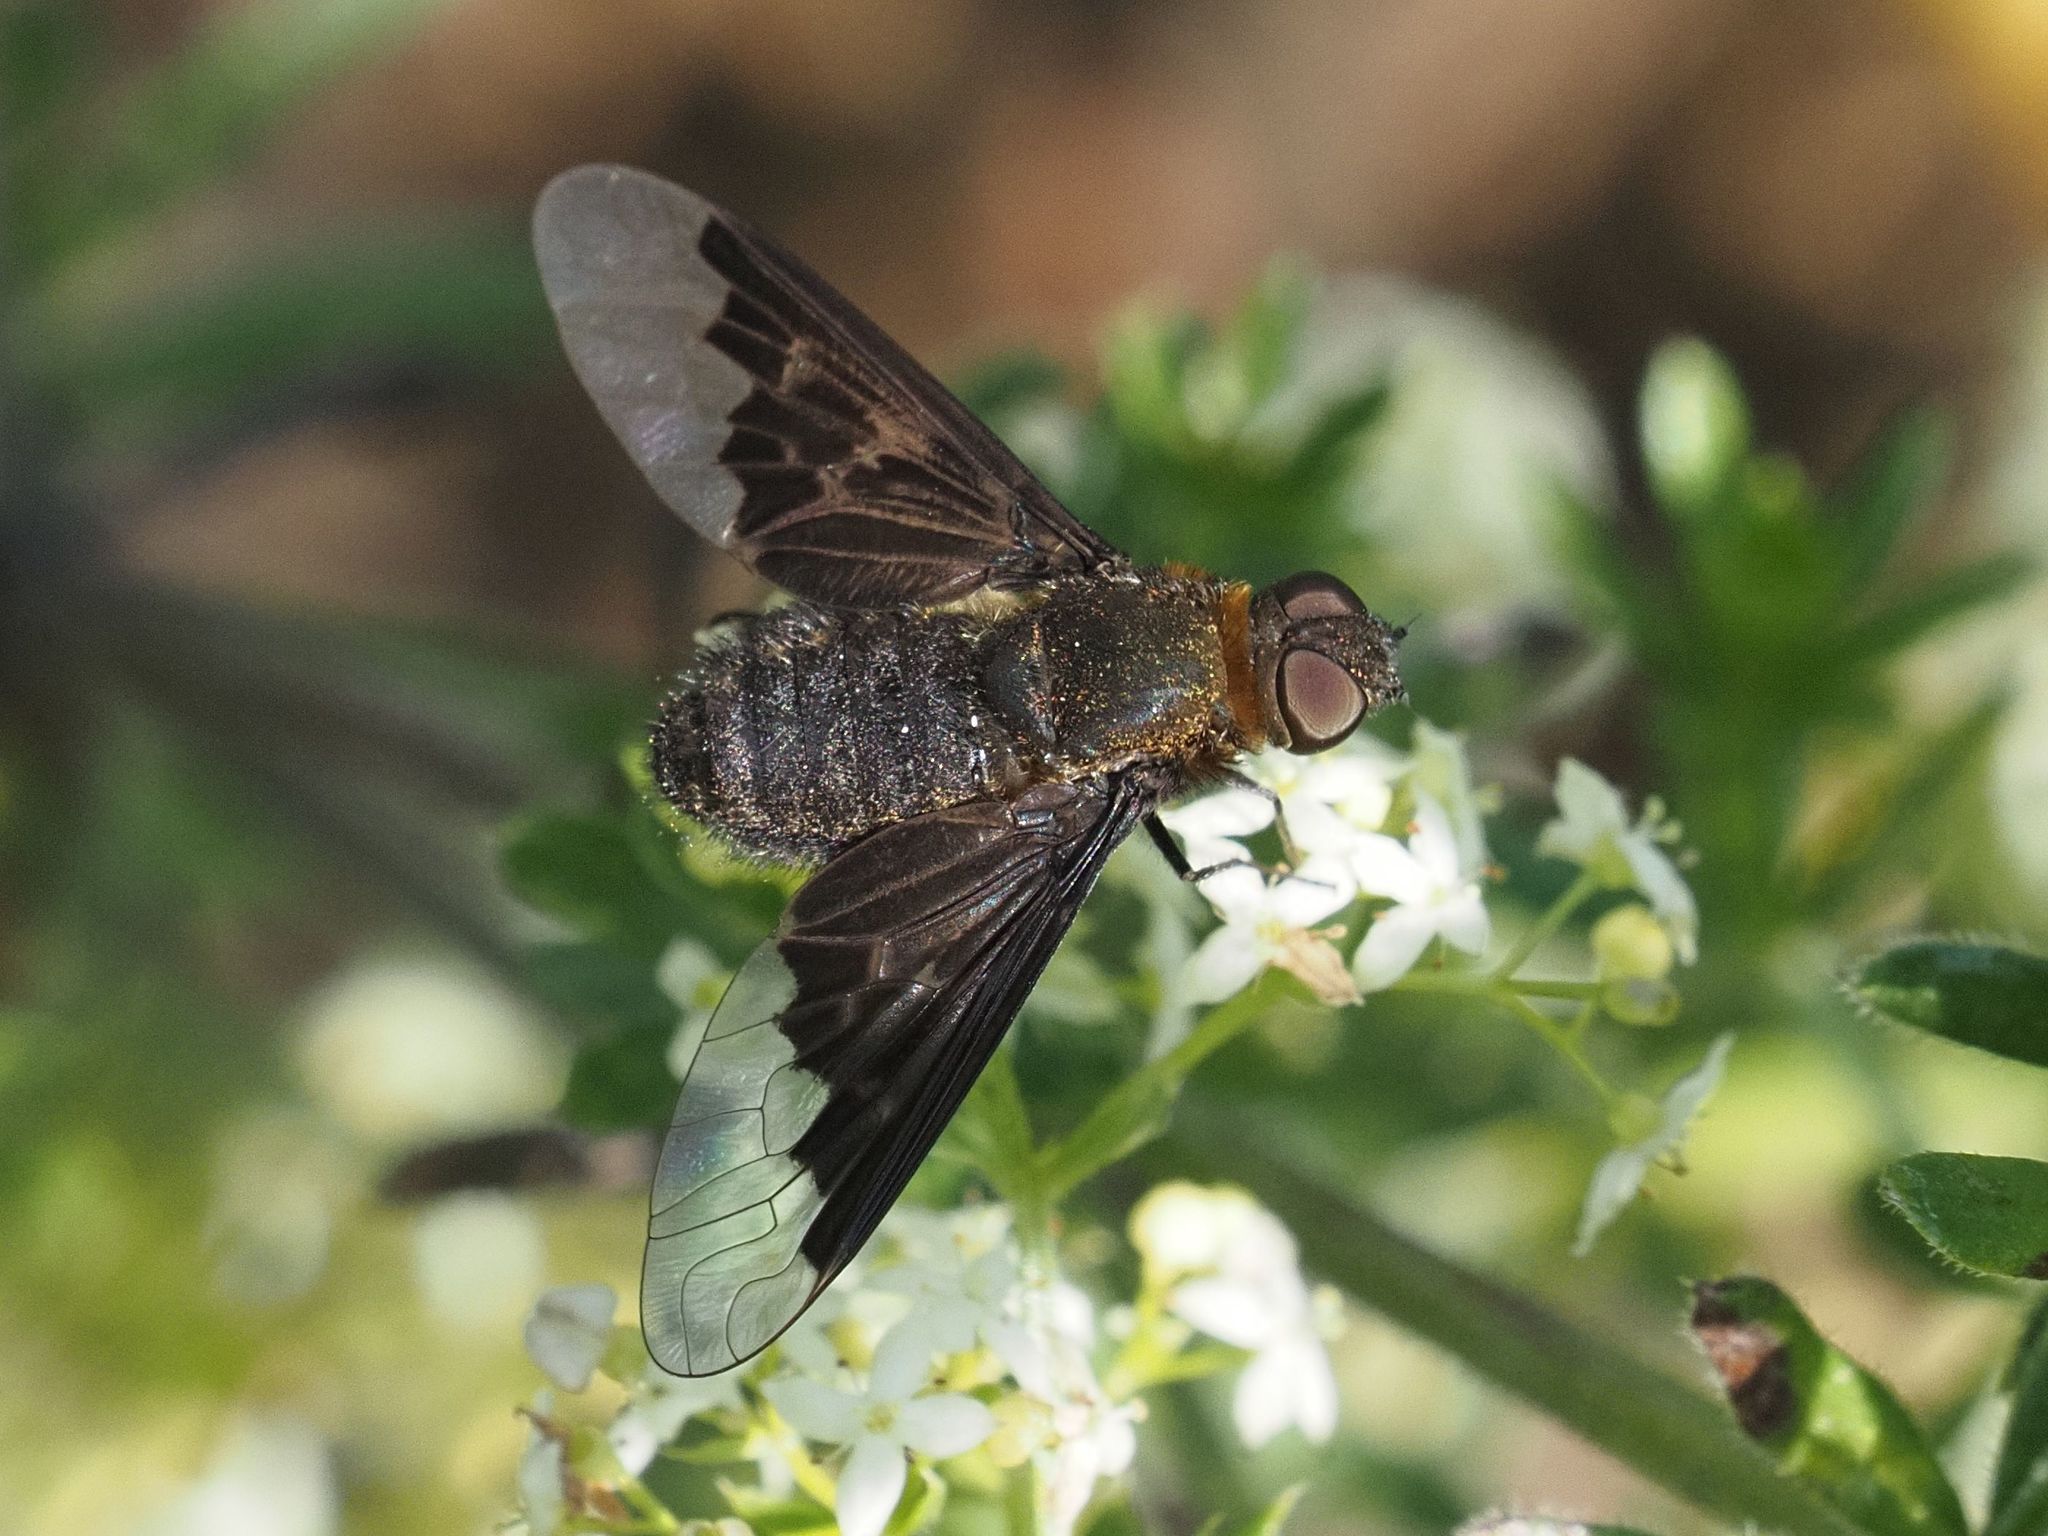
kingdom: Animalia
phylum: Arthropoda
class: Insecta
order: Diptera
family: Bombyliidae
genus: Hemipenthes
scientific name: Hemipenthes morio
